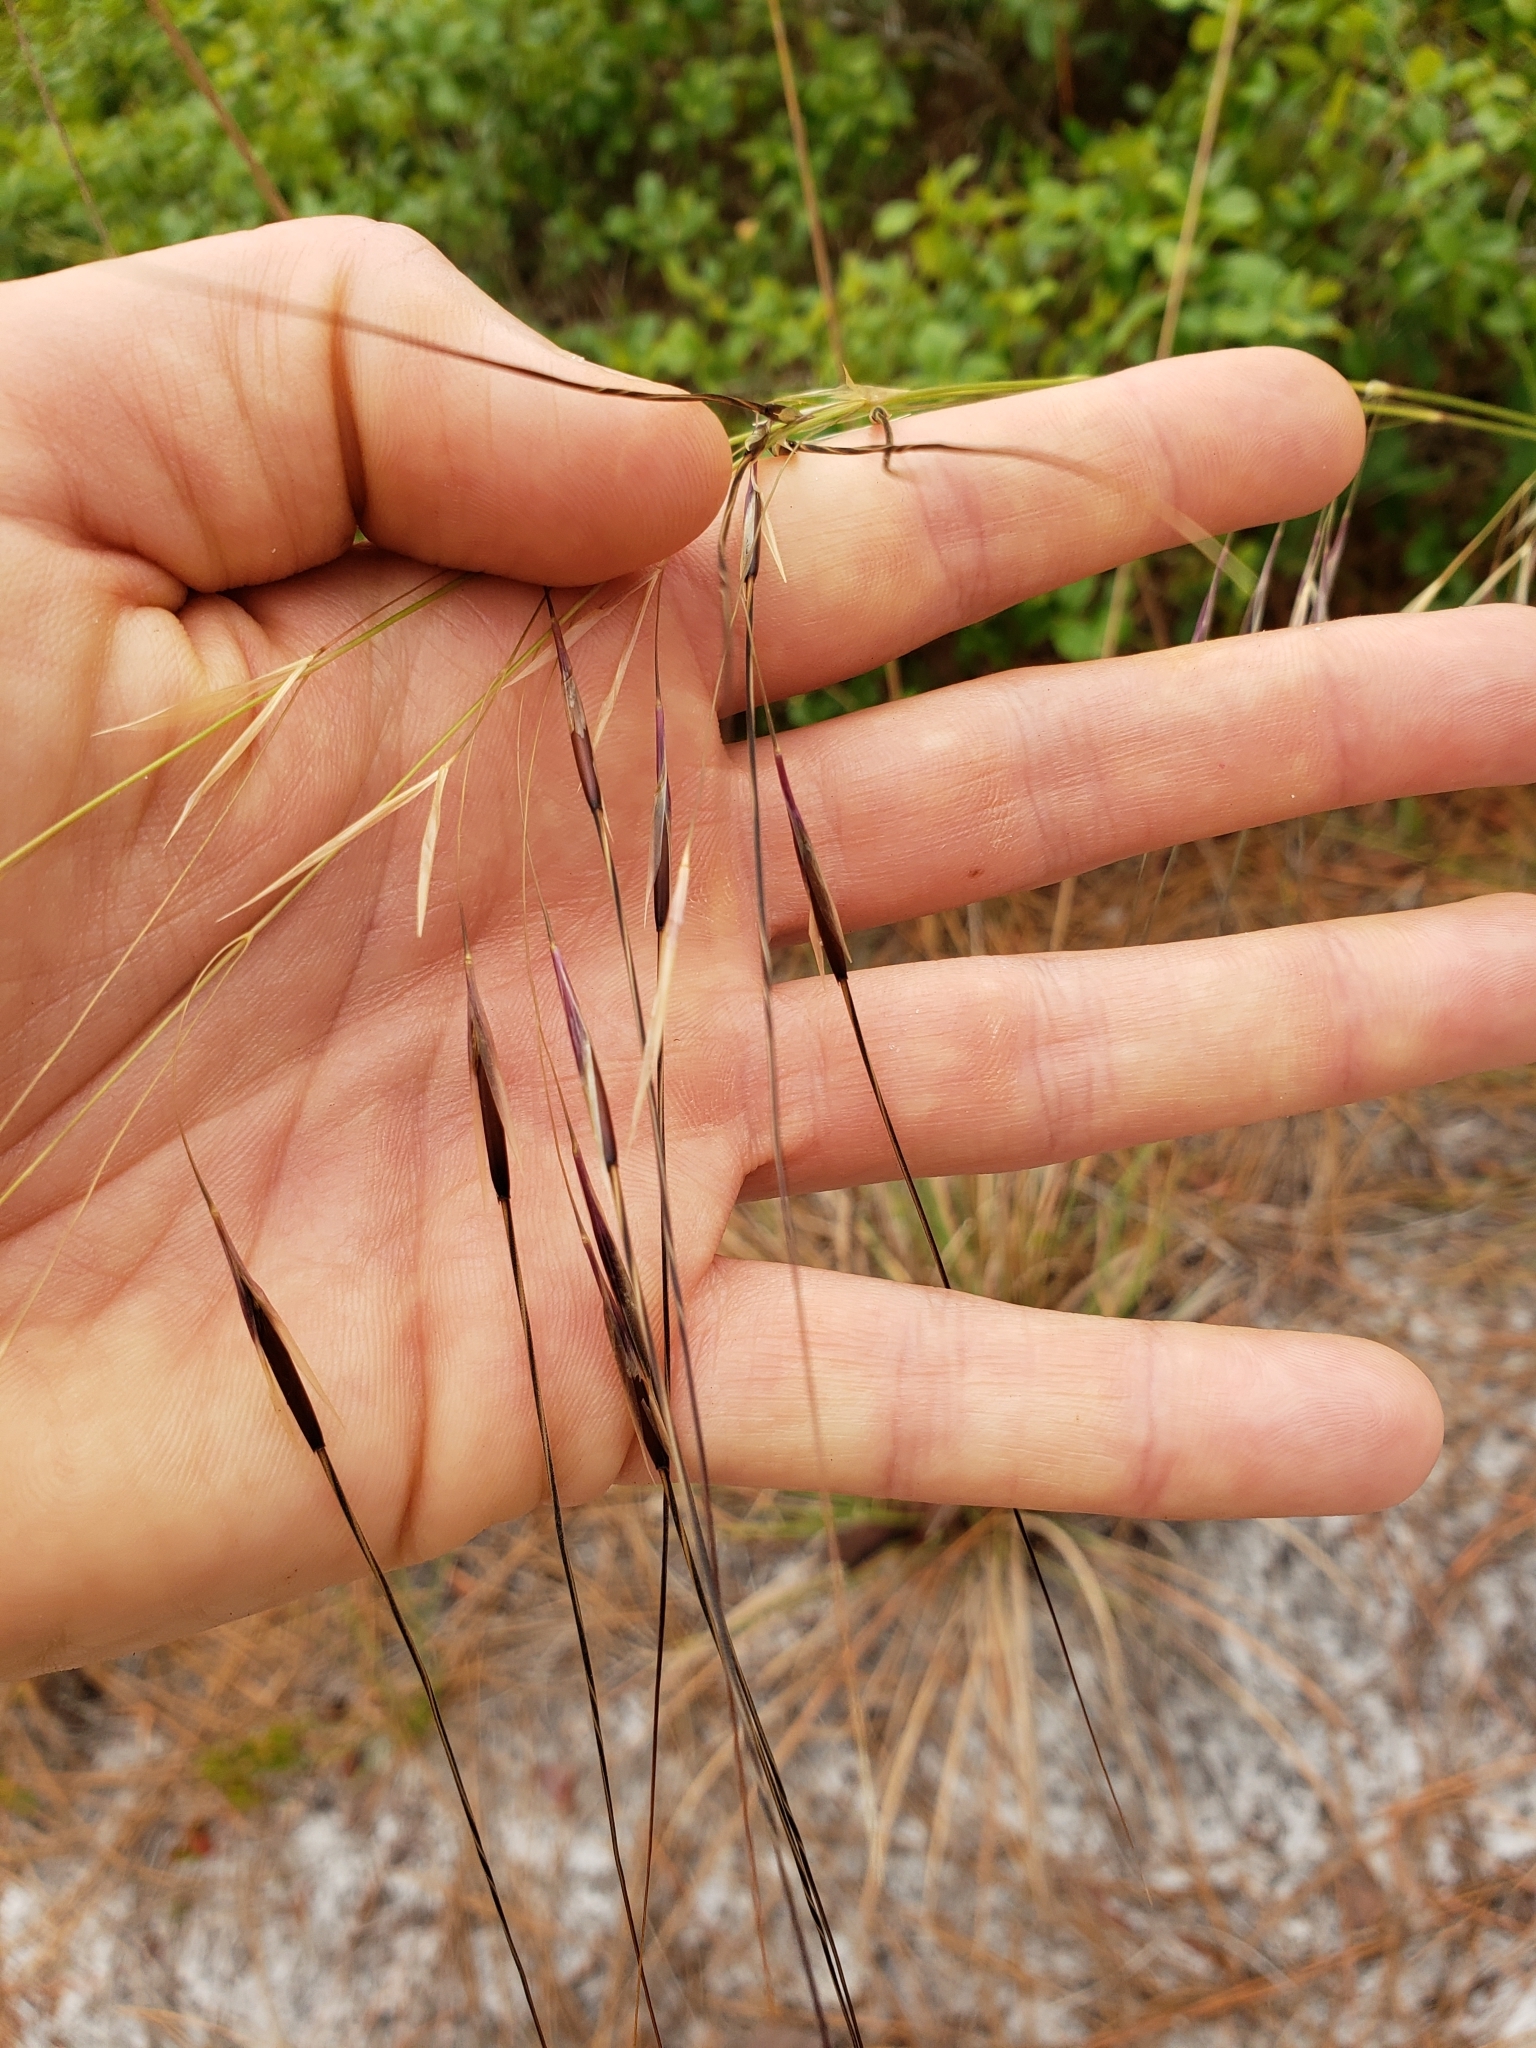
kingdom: Plantae
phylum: Tracheophyta
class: Liliopsida
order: Poales
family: Poaceae
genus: Piptochaetium
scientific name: Piptochaetium avenacioides
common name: Florida needlegrass
